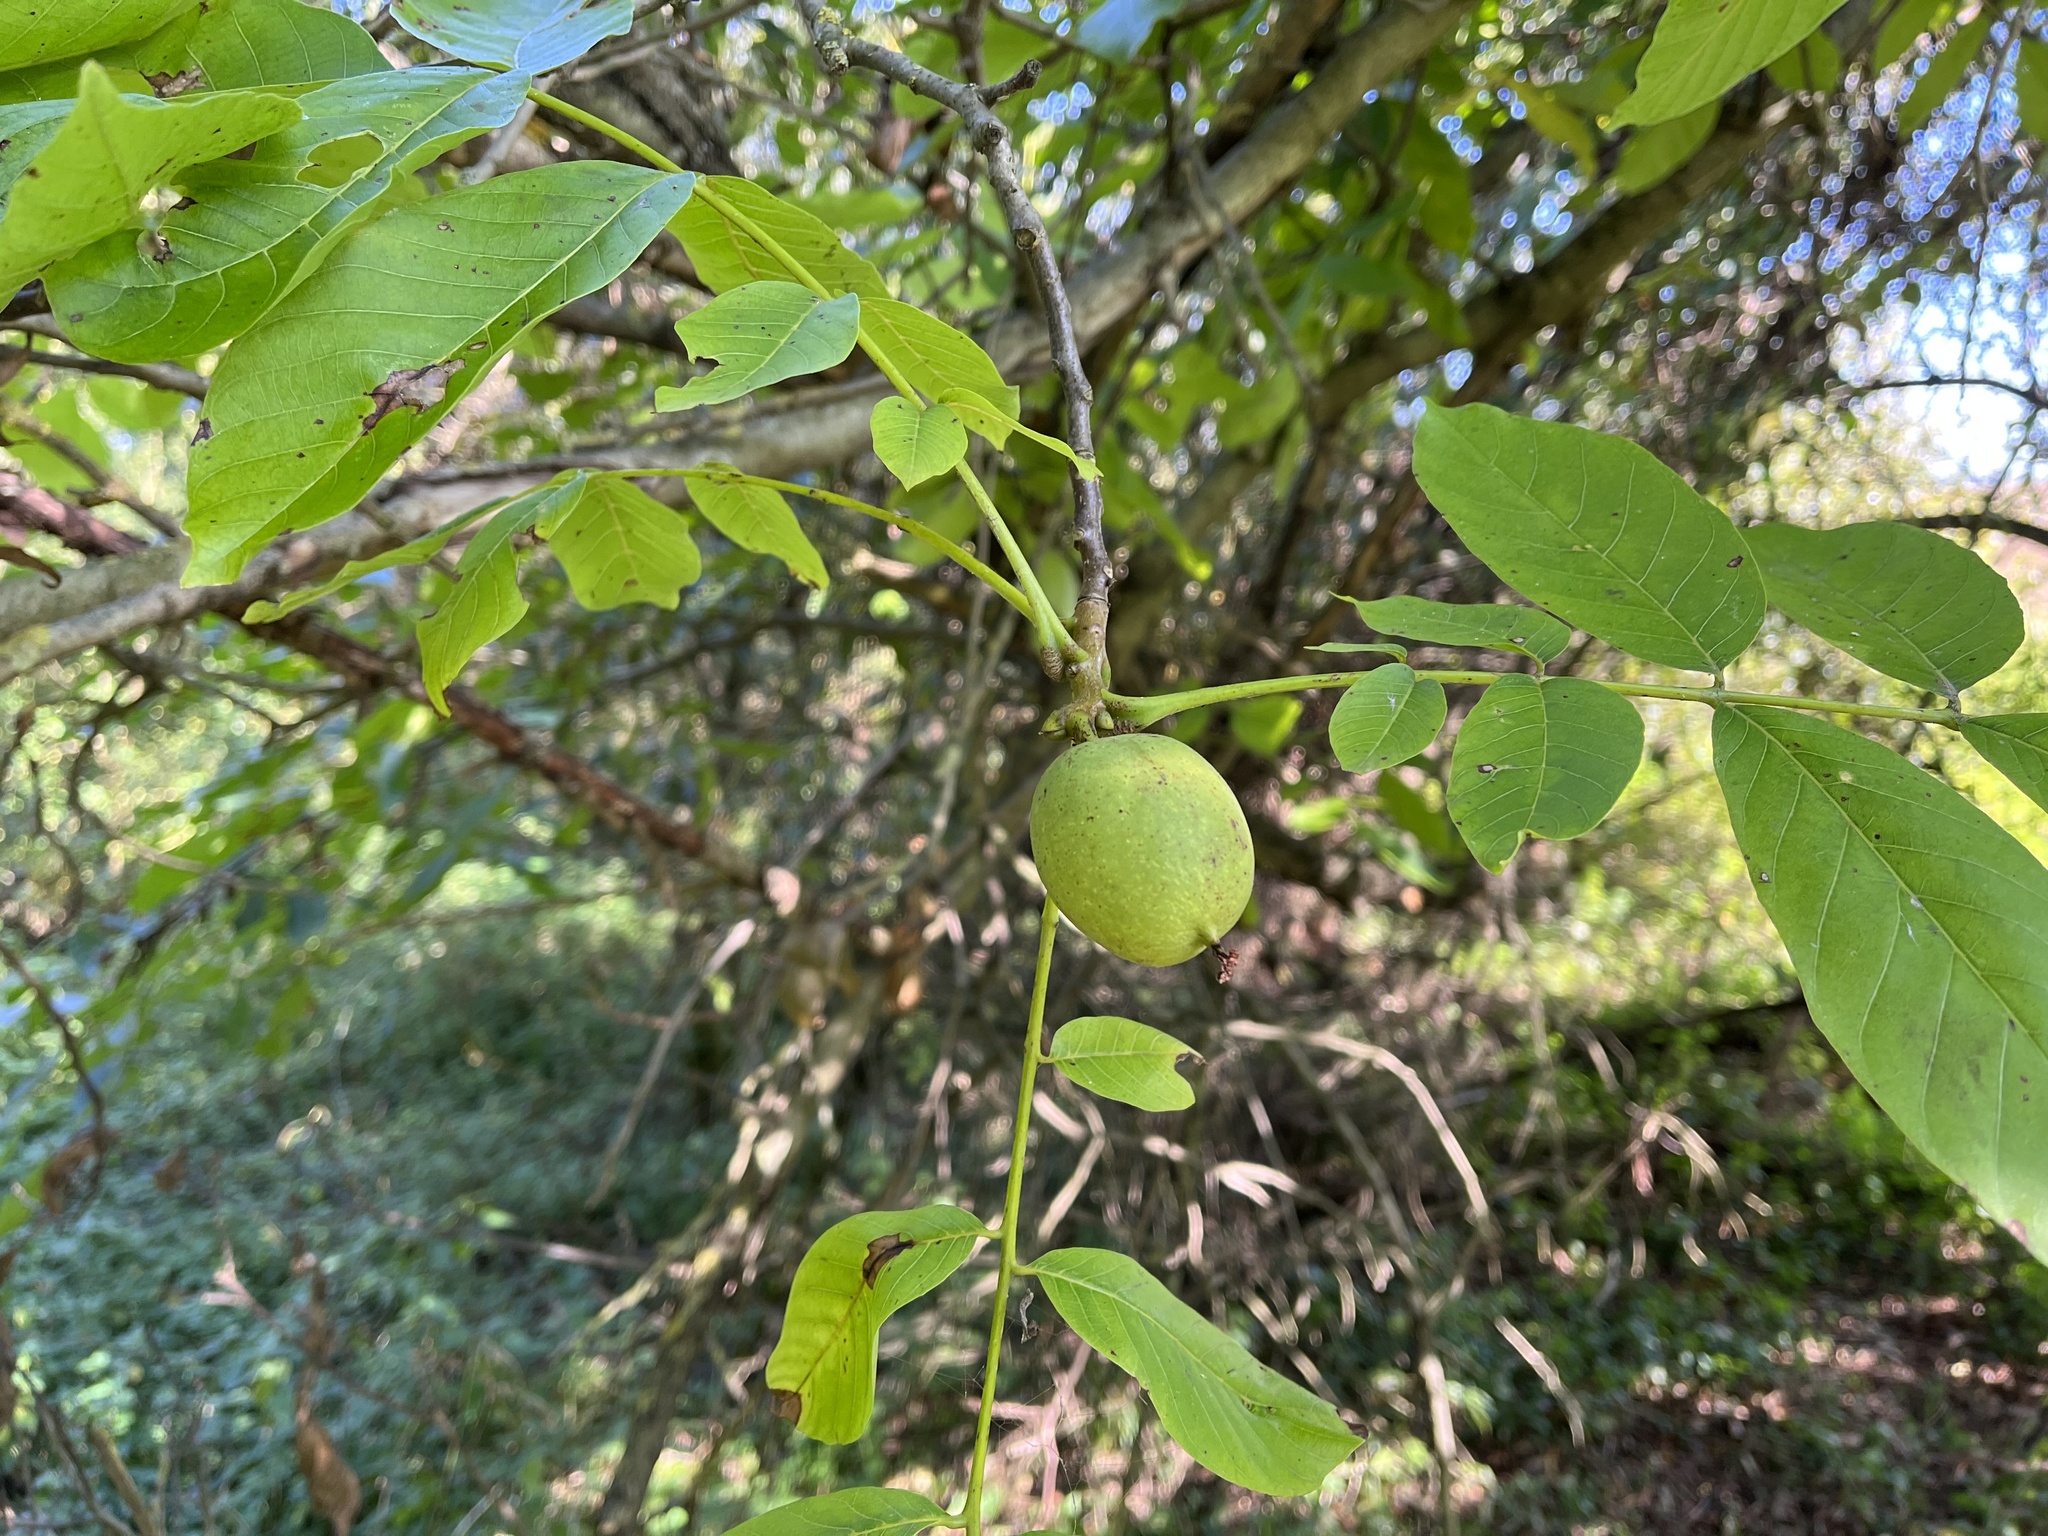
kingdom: Plantae
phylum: Tracheophyta
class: Magnoliopsida
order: Fagales
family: Juglandaceae
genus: Juglans
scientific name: Juglans regia
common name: Walnut
